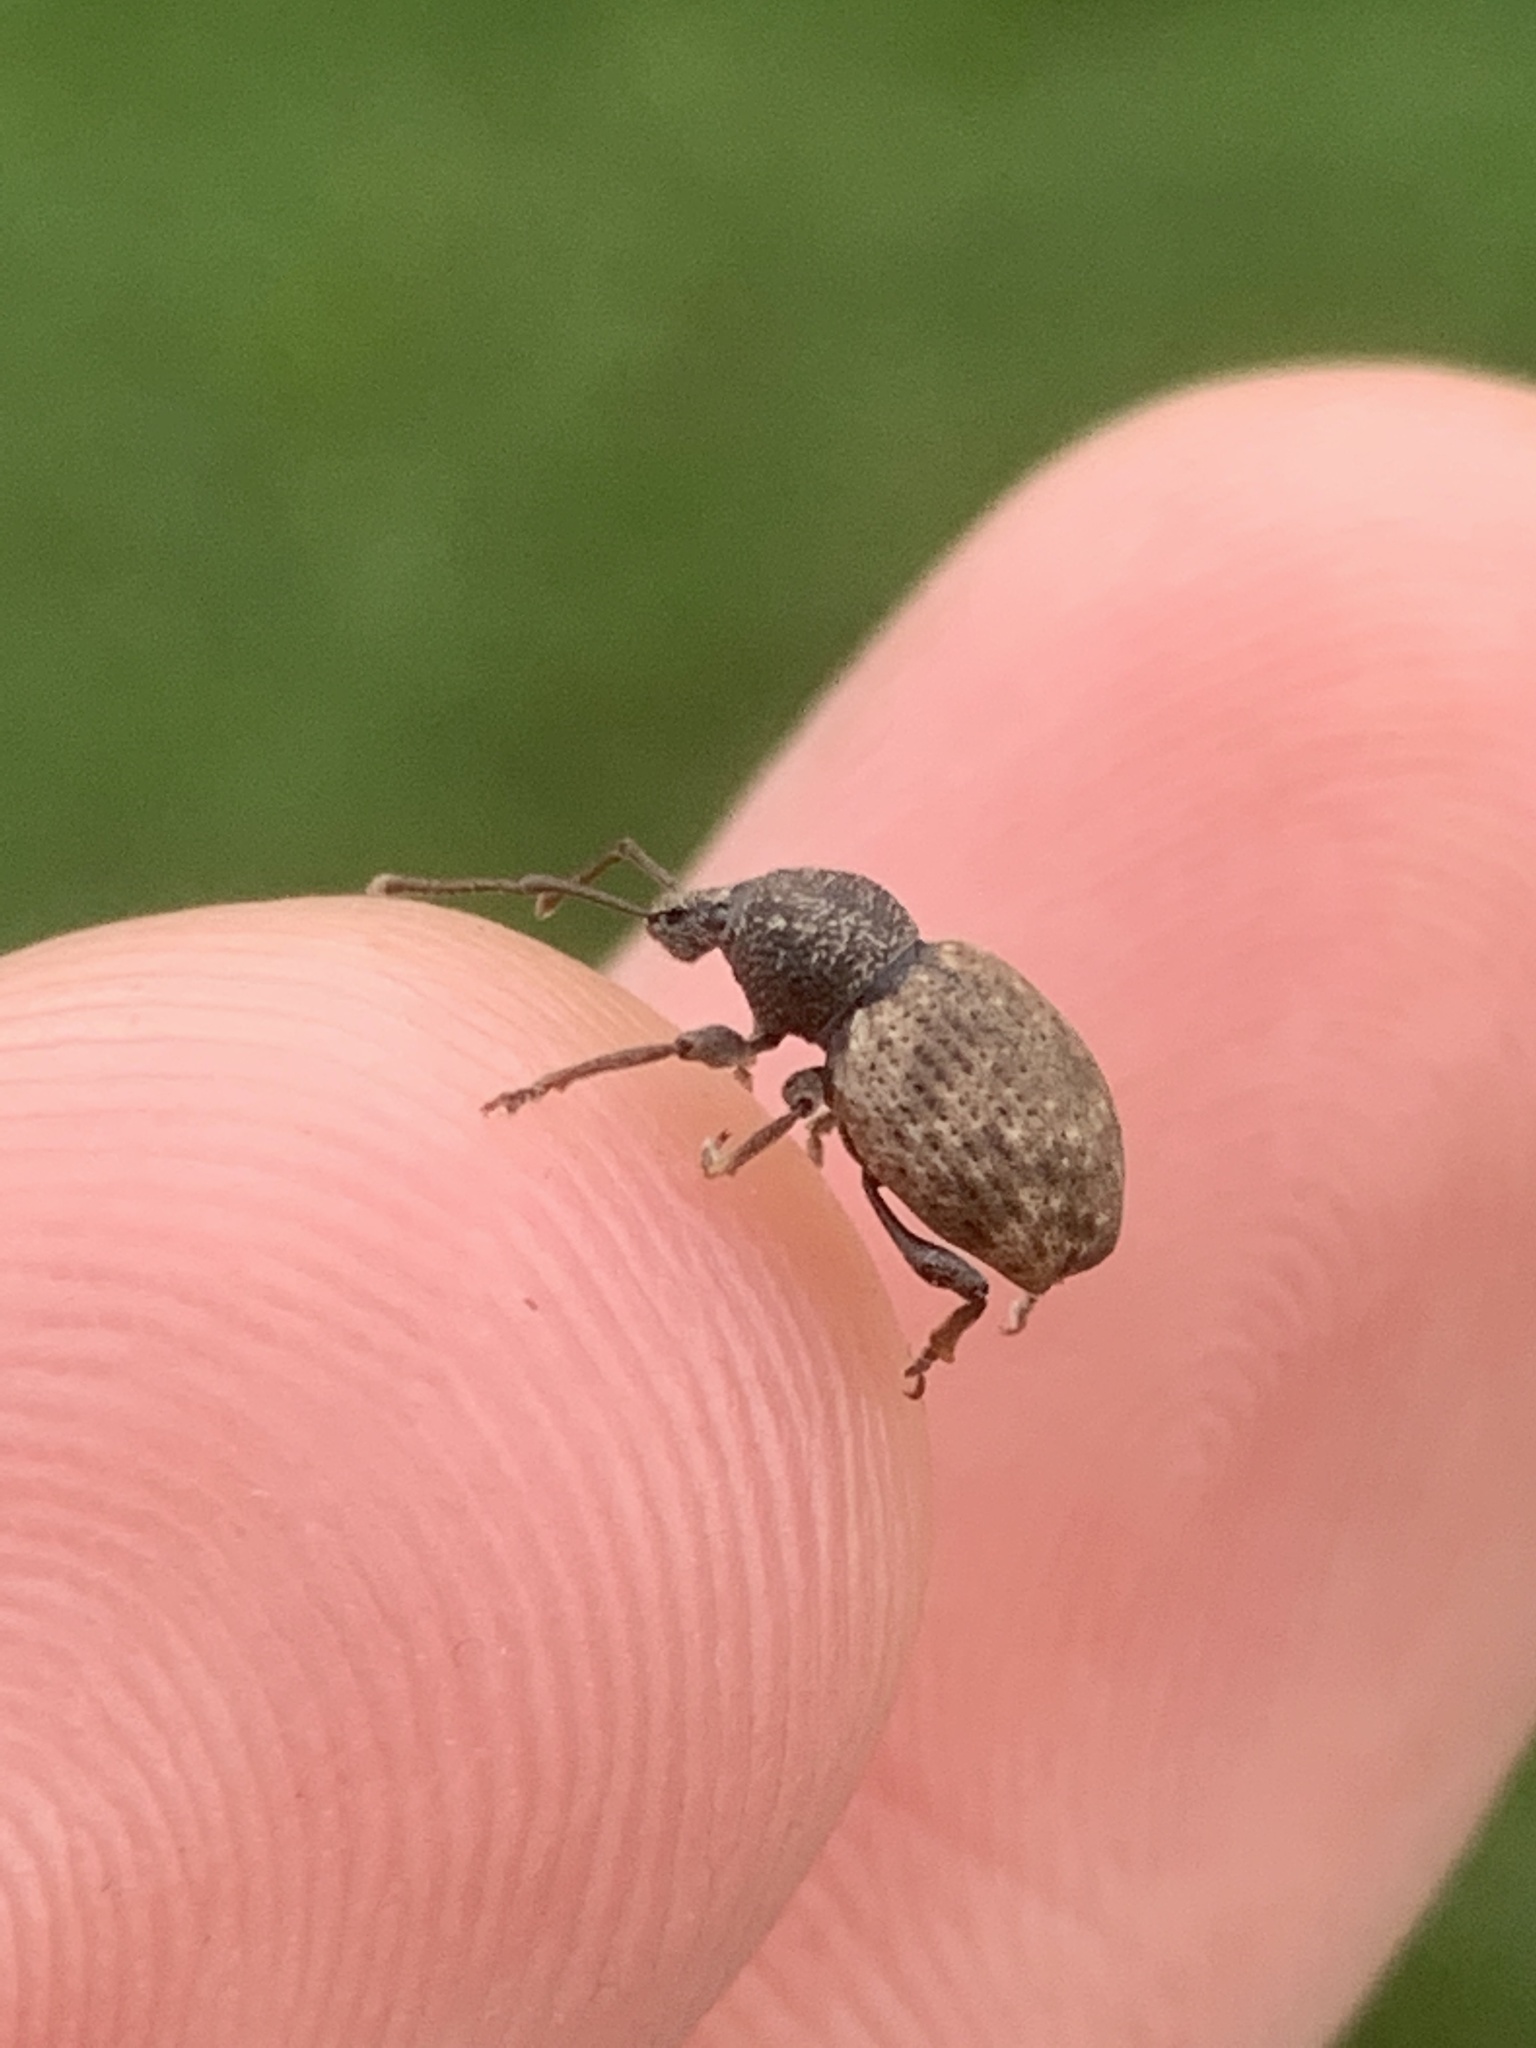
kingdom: Animalia
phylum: Arthropoda
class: Insecta
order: Coleoptera
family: Curculionidae
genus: Otiorhynchus
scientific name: Otiorhynchus raucus
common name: Weevil
